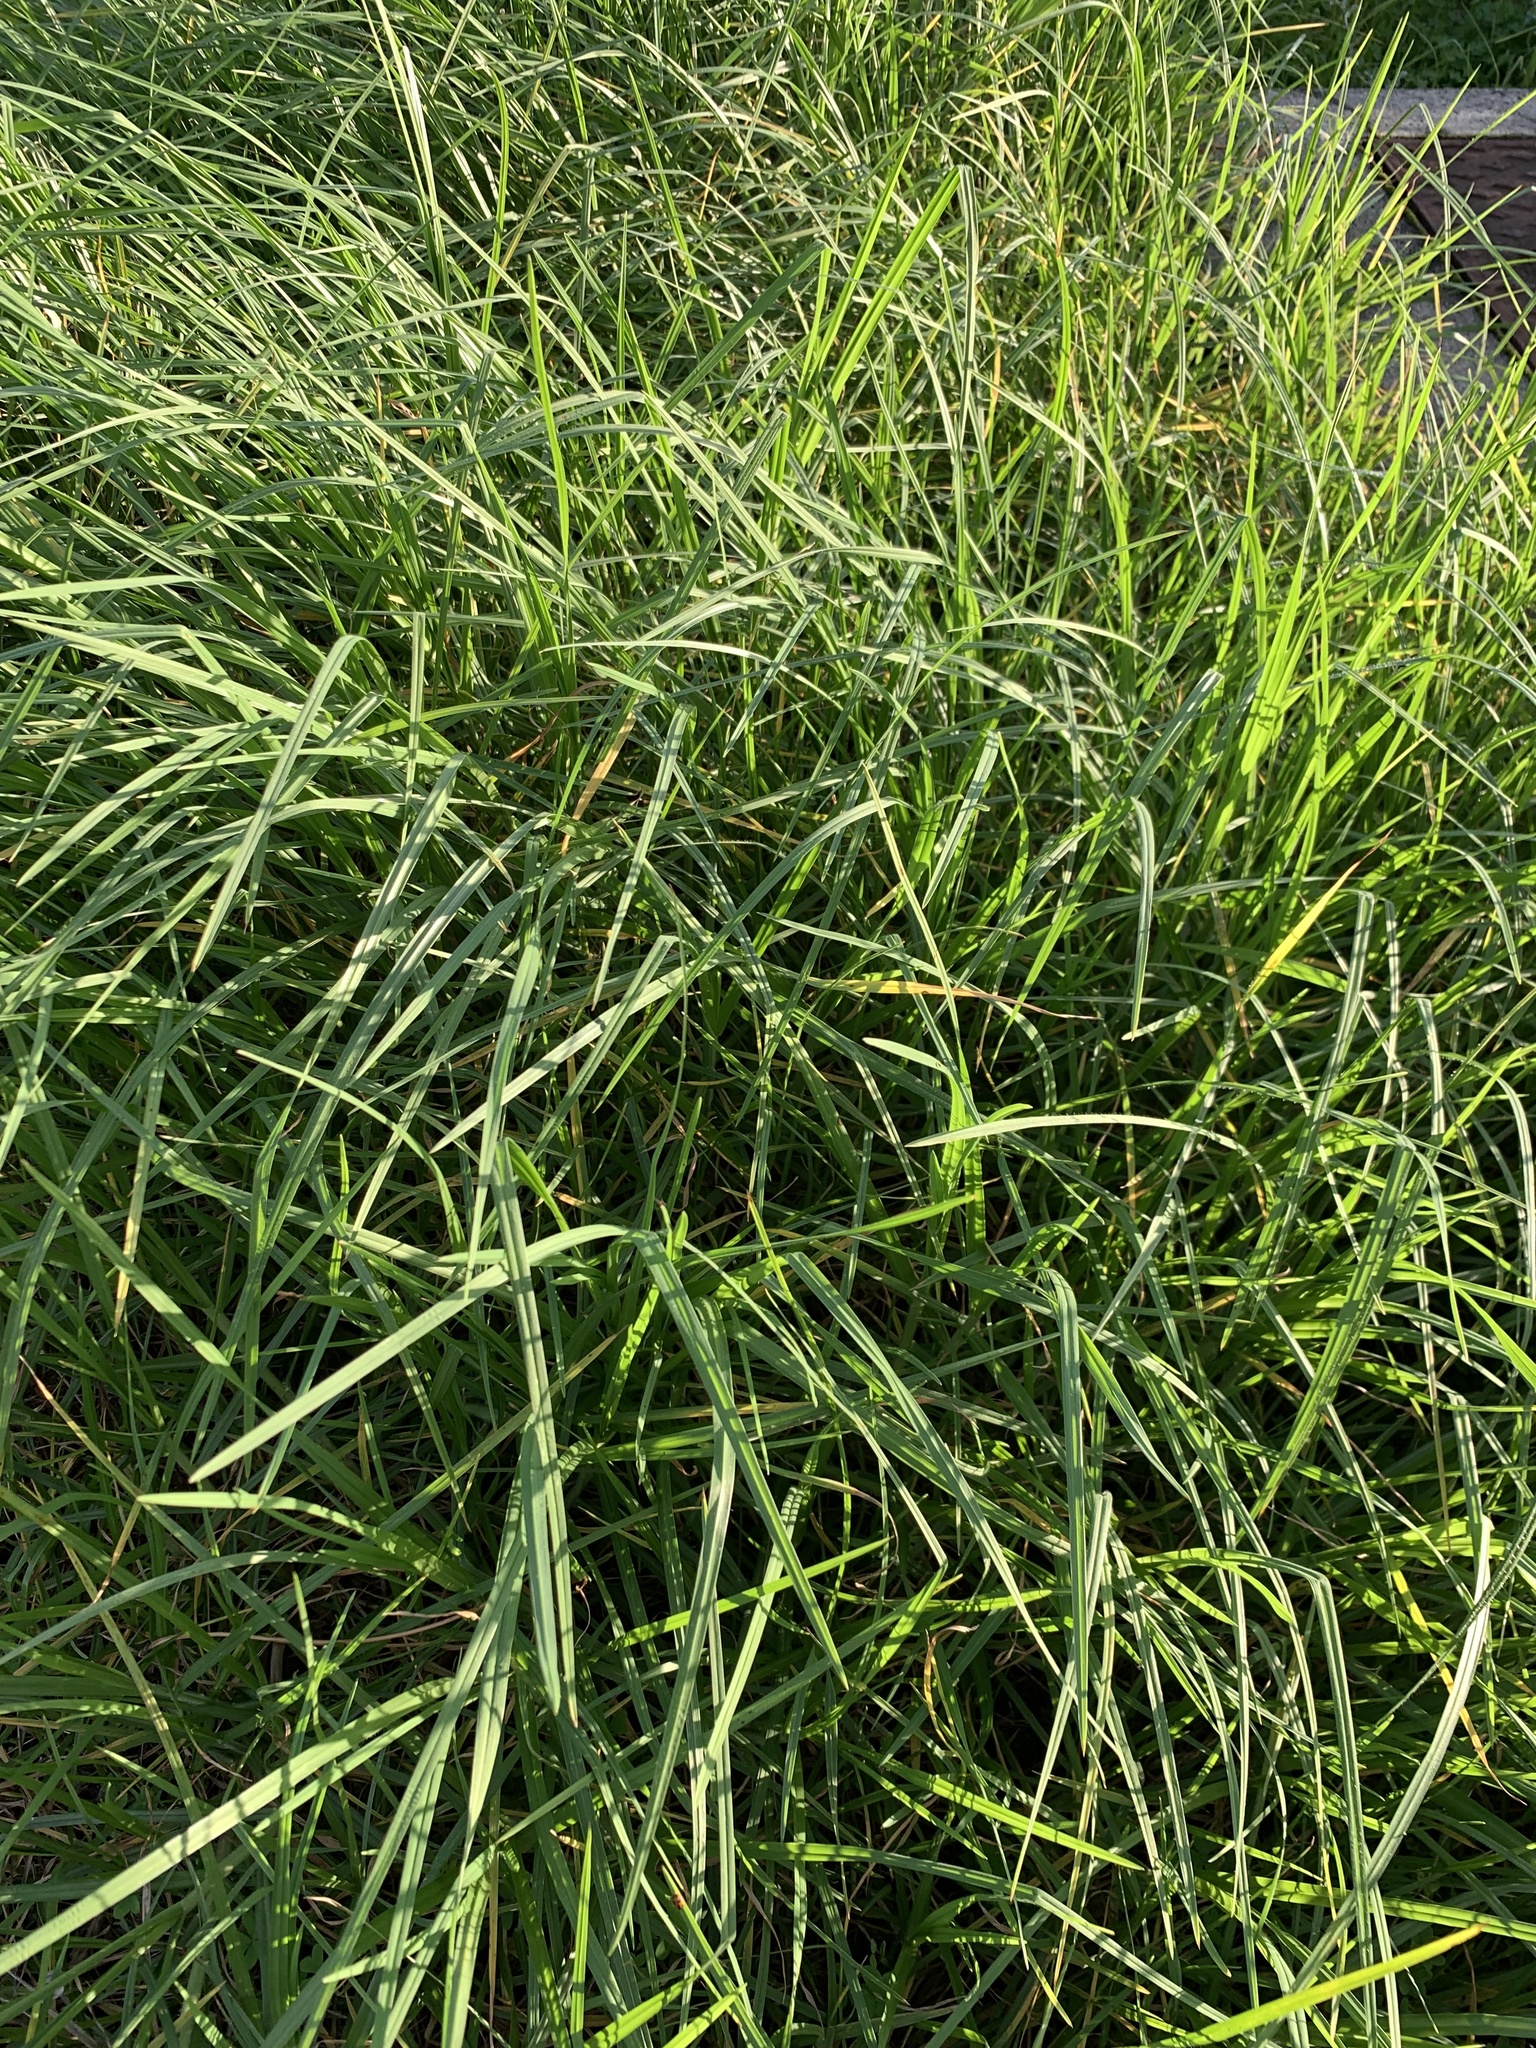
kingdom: Plantae
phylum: Tracheophyta
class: Liliopsida
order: Poales
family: Poaceae
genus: Cenchrus
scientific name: Cenchrus clandestinus
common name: Kikuyugrass
